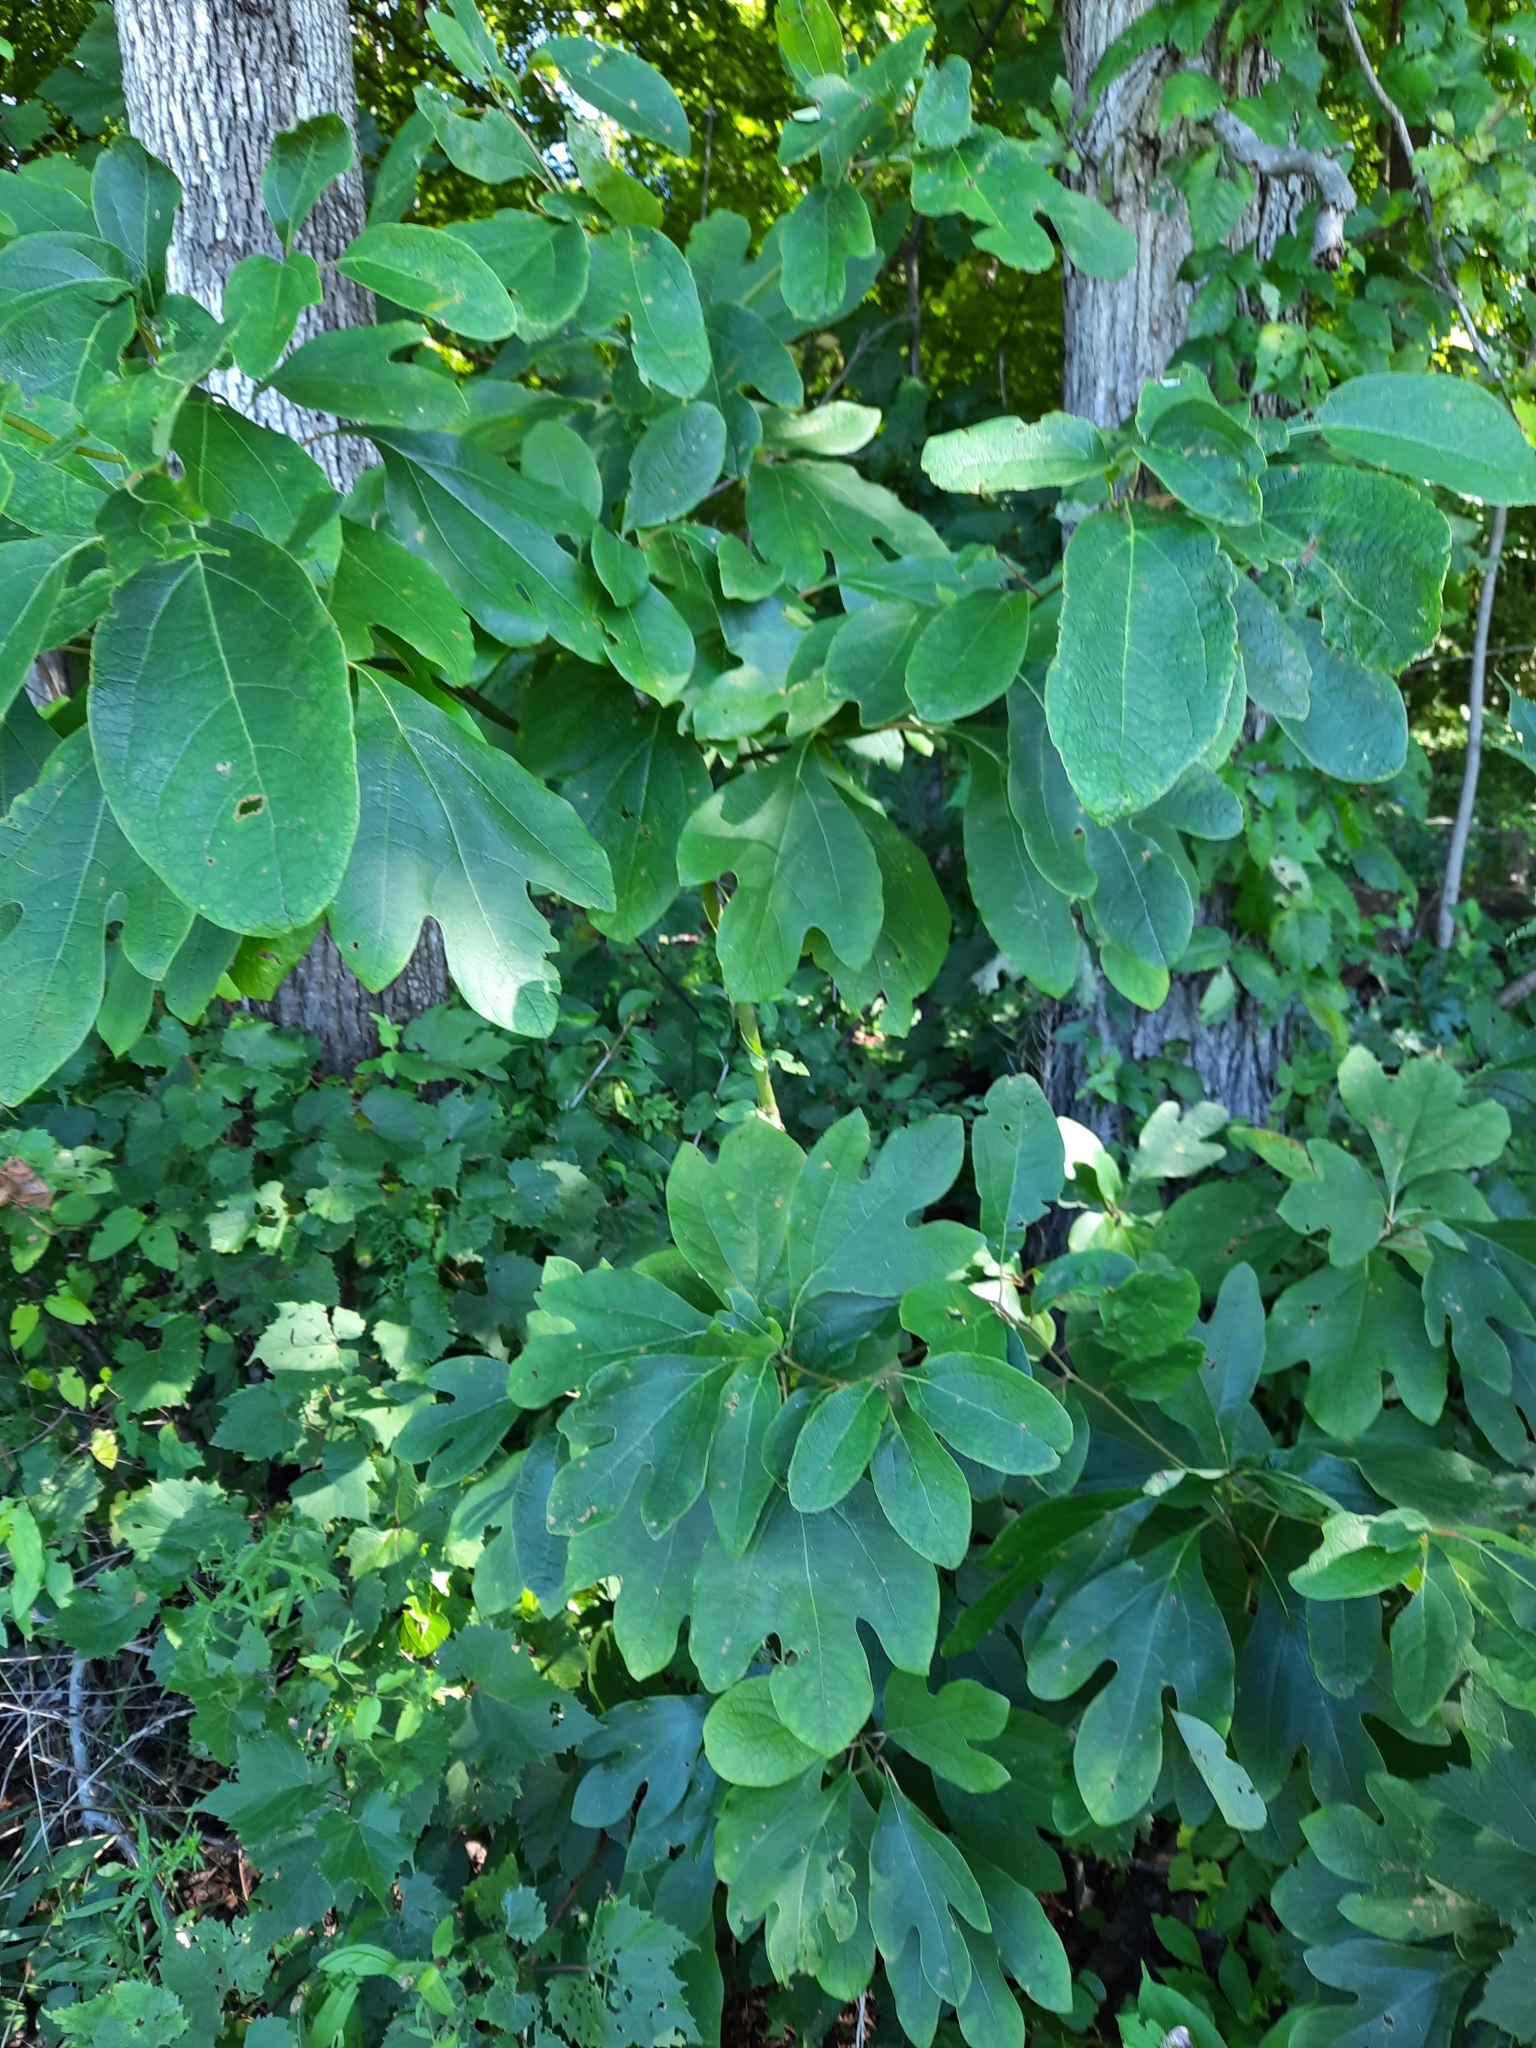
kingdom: Plantae
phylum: Tracheophyta
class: Magnoliopsida
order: Laurales
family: Lauraceae
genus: Sassafras
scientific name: Sassafras albidum
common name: Sassafras
